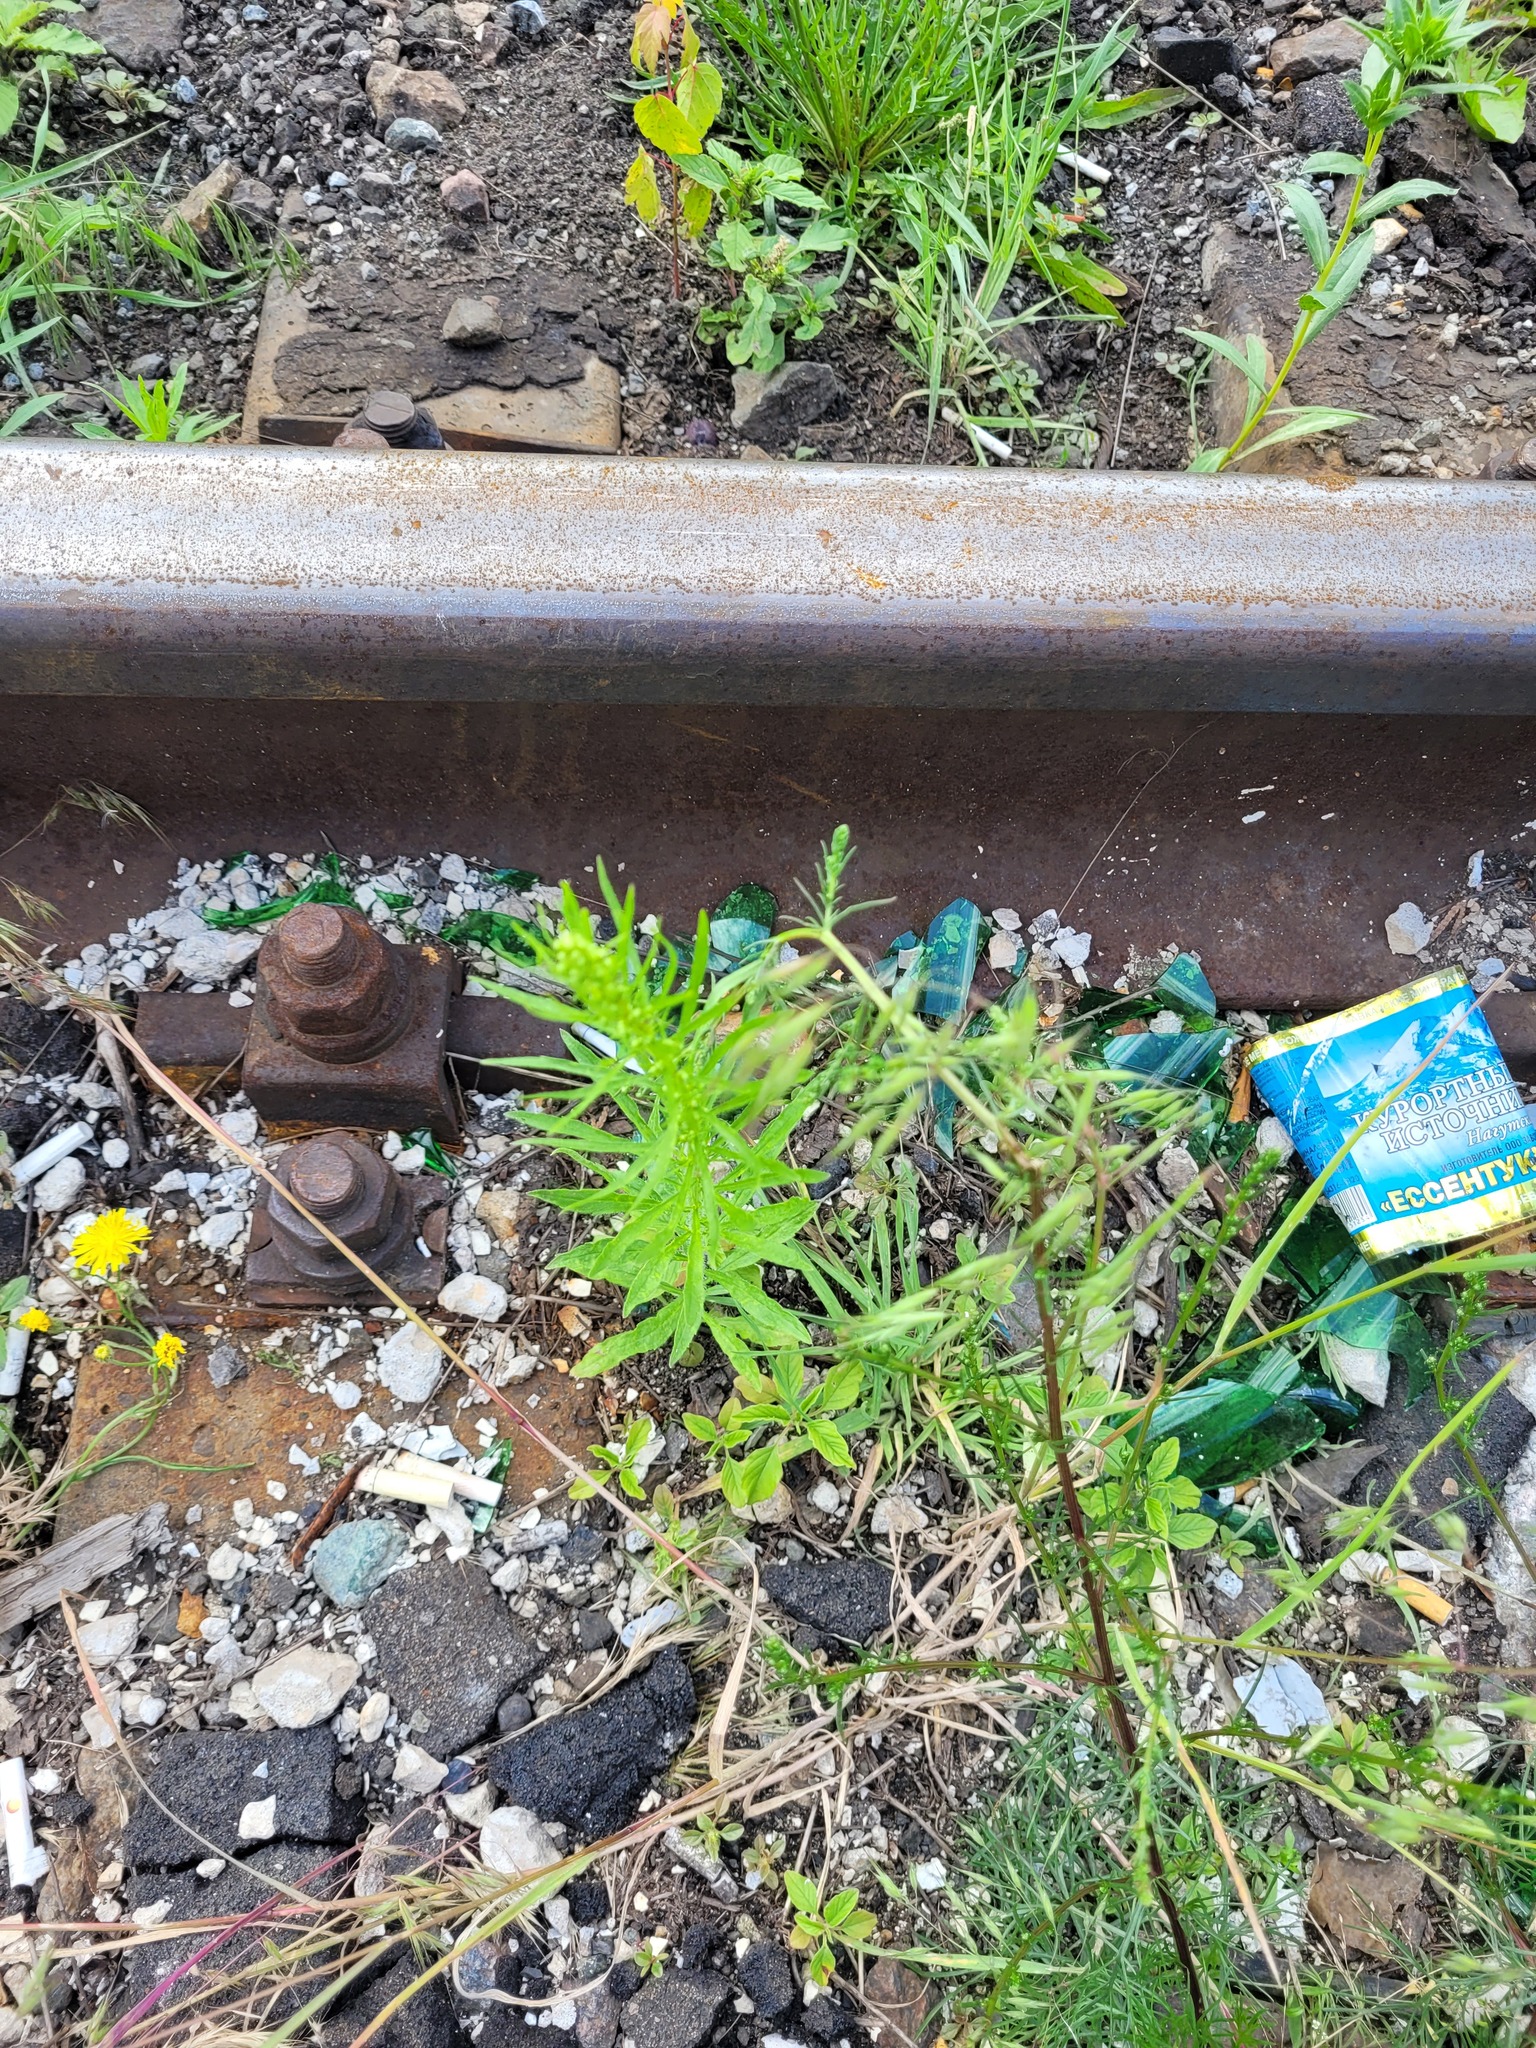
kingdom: Plantae
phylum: Tracheophyta
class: Magnoliopsida
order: Asterales
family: Asteraceae
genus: Erigeron
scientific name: Erigeron canadensis
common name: Canadian fleabane
